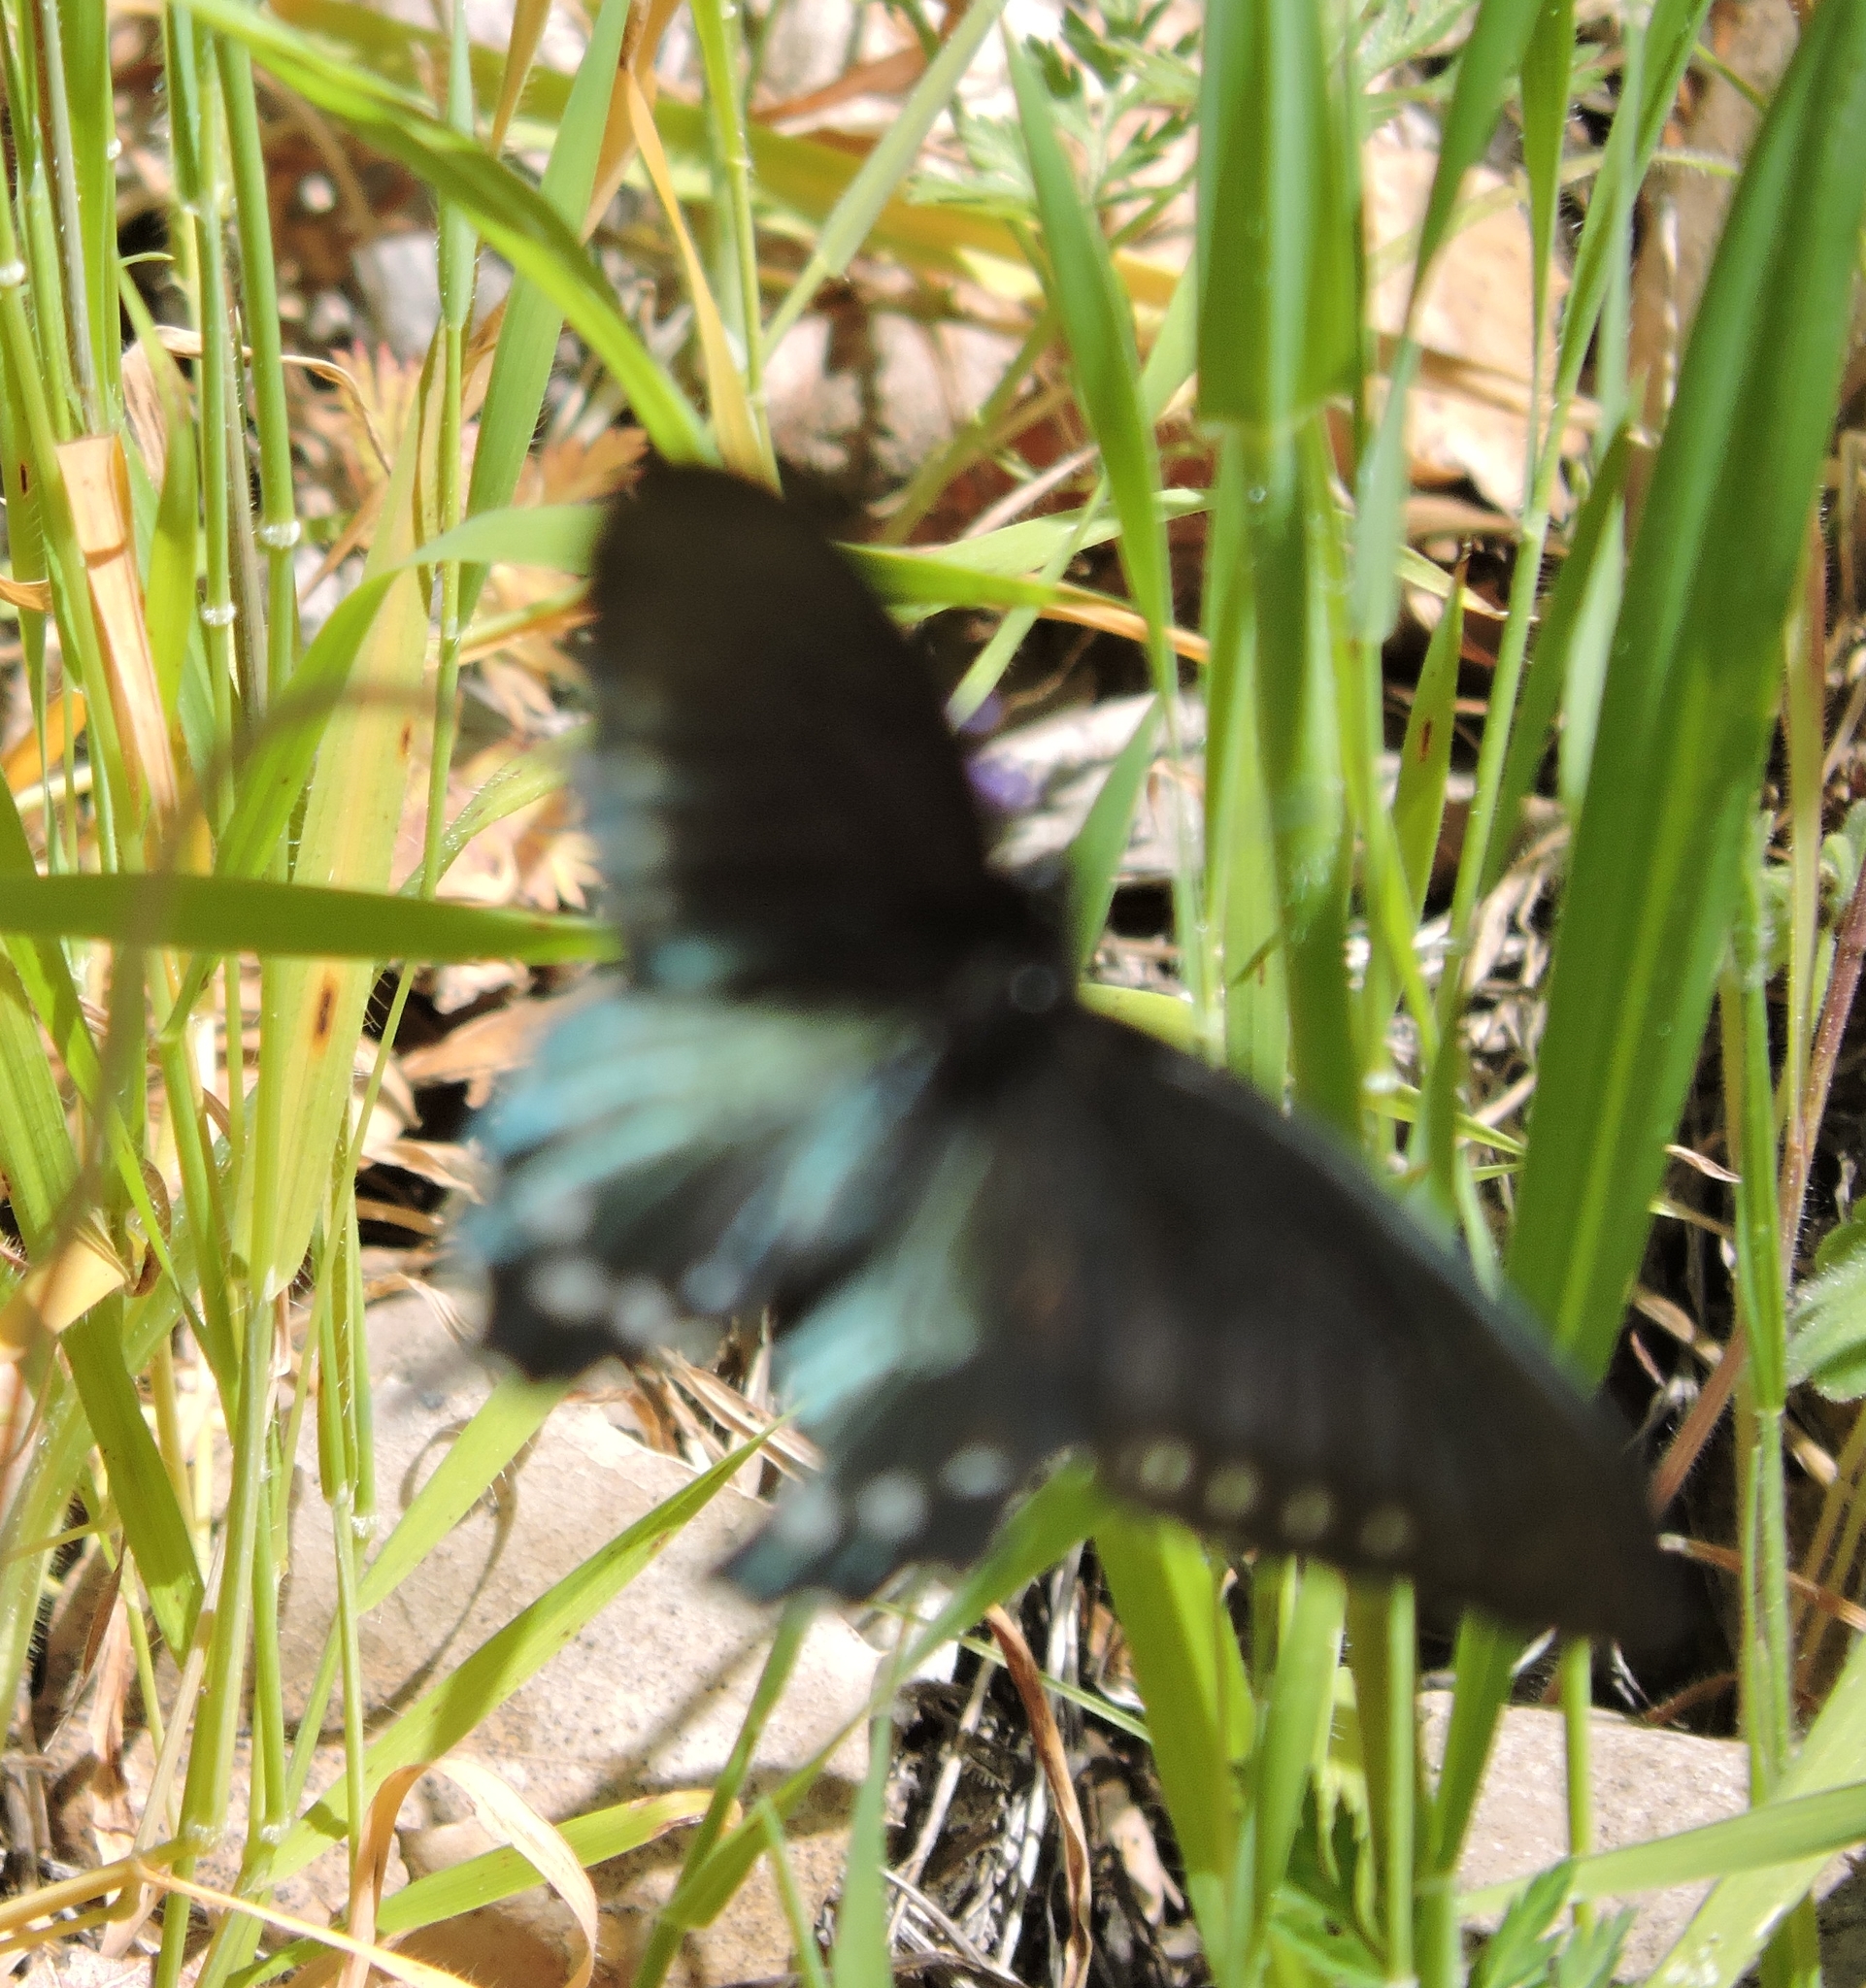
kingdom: Animalia
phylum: Arthropoda
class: Insecta
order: Lepidoptera
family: Papilionidae
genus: Battus
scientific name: Battus philenor
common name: Pipevine swallowtail
